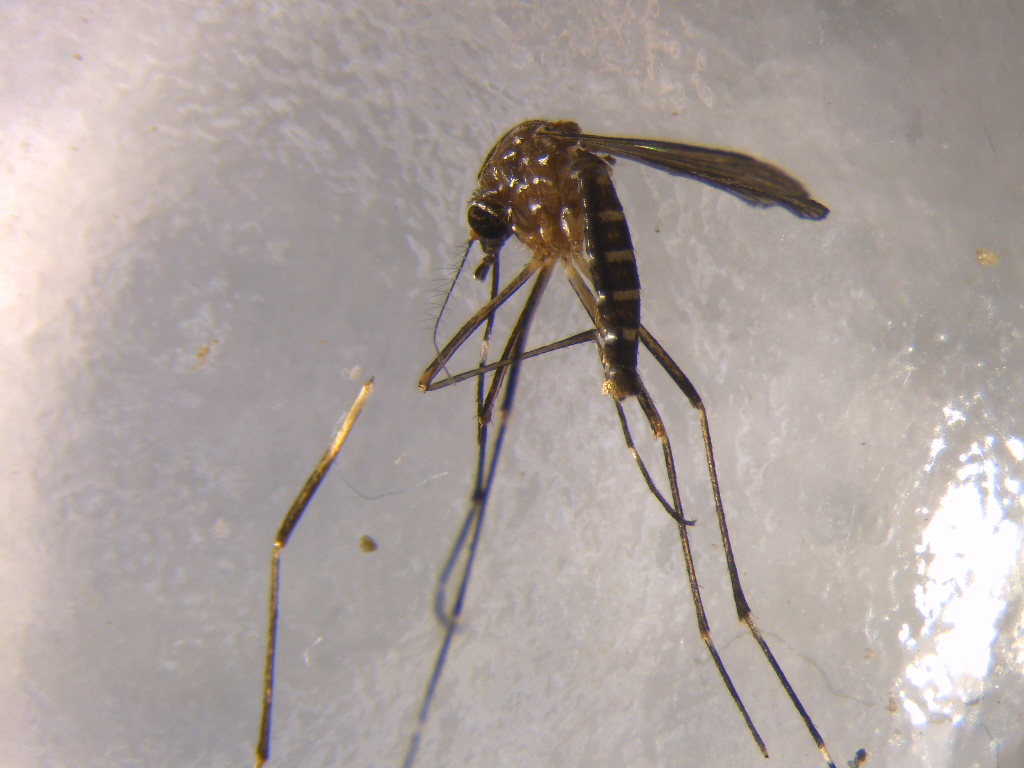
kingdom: Animalia
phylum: Arthropoda
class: Insecta
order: Diptera
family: Culicidae
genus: Aedes
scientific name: Aedes notoscriptus
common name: Australian backyard mosquito
